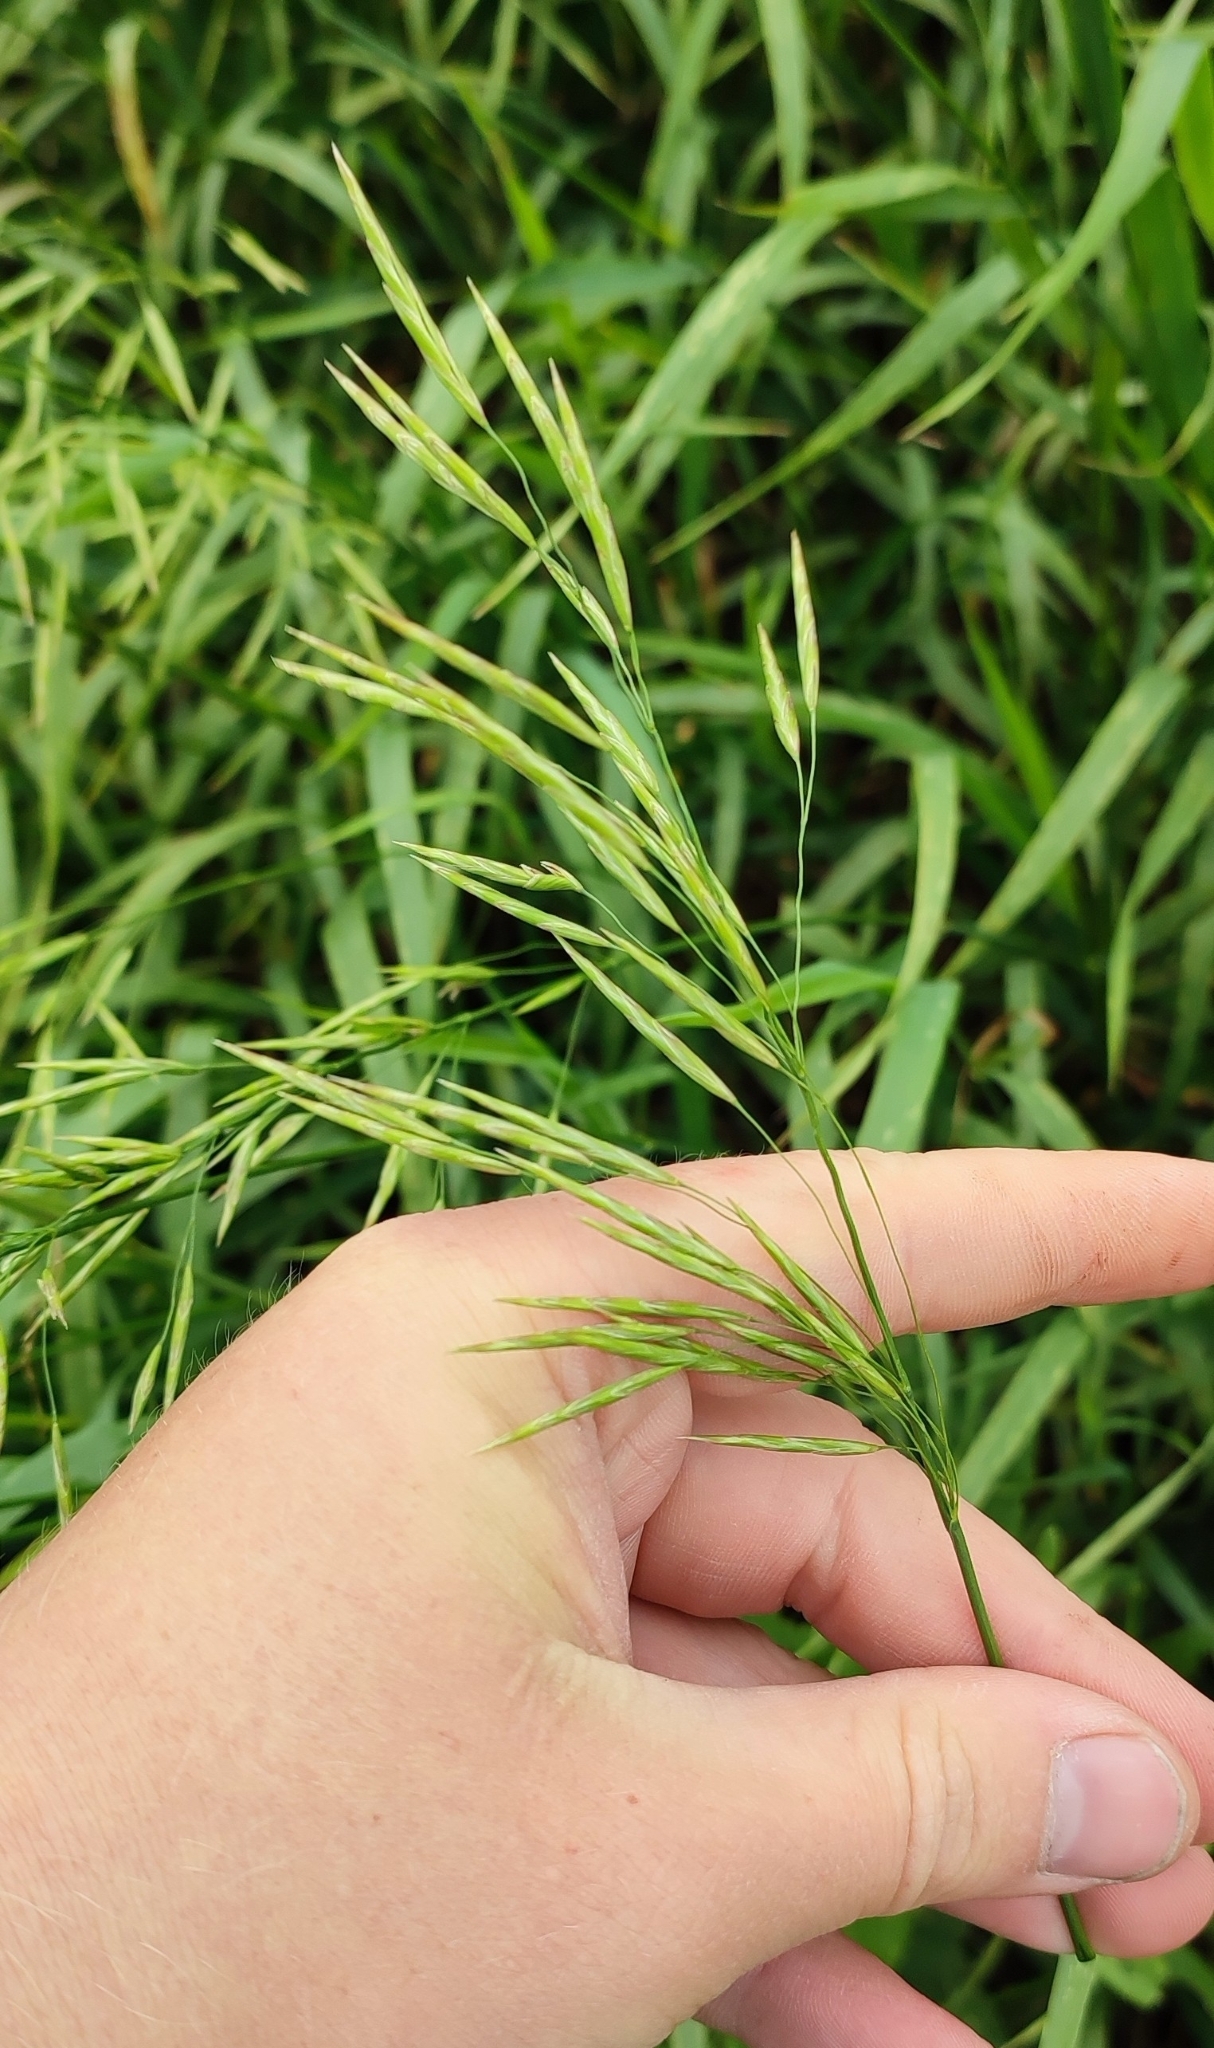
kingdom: Plantae
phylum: Tracheophyta
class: Liliopsida
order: Poales
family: Poaceae
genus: Bromus
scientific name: Bromus inermis
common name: Smooth brome
